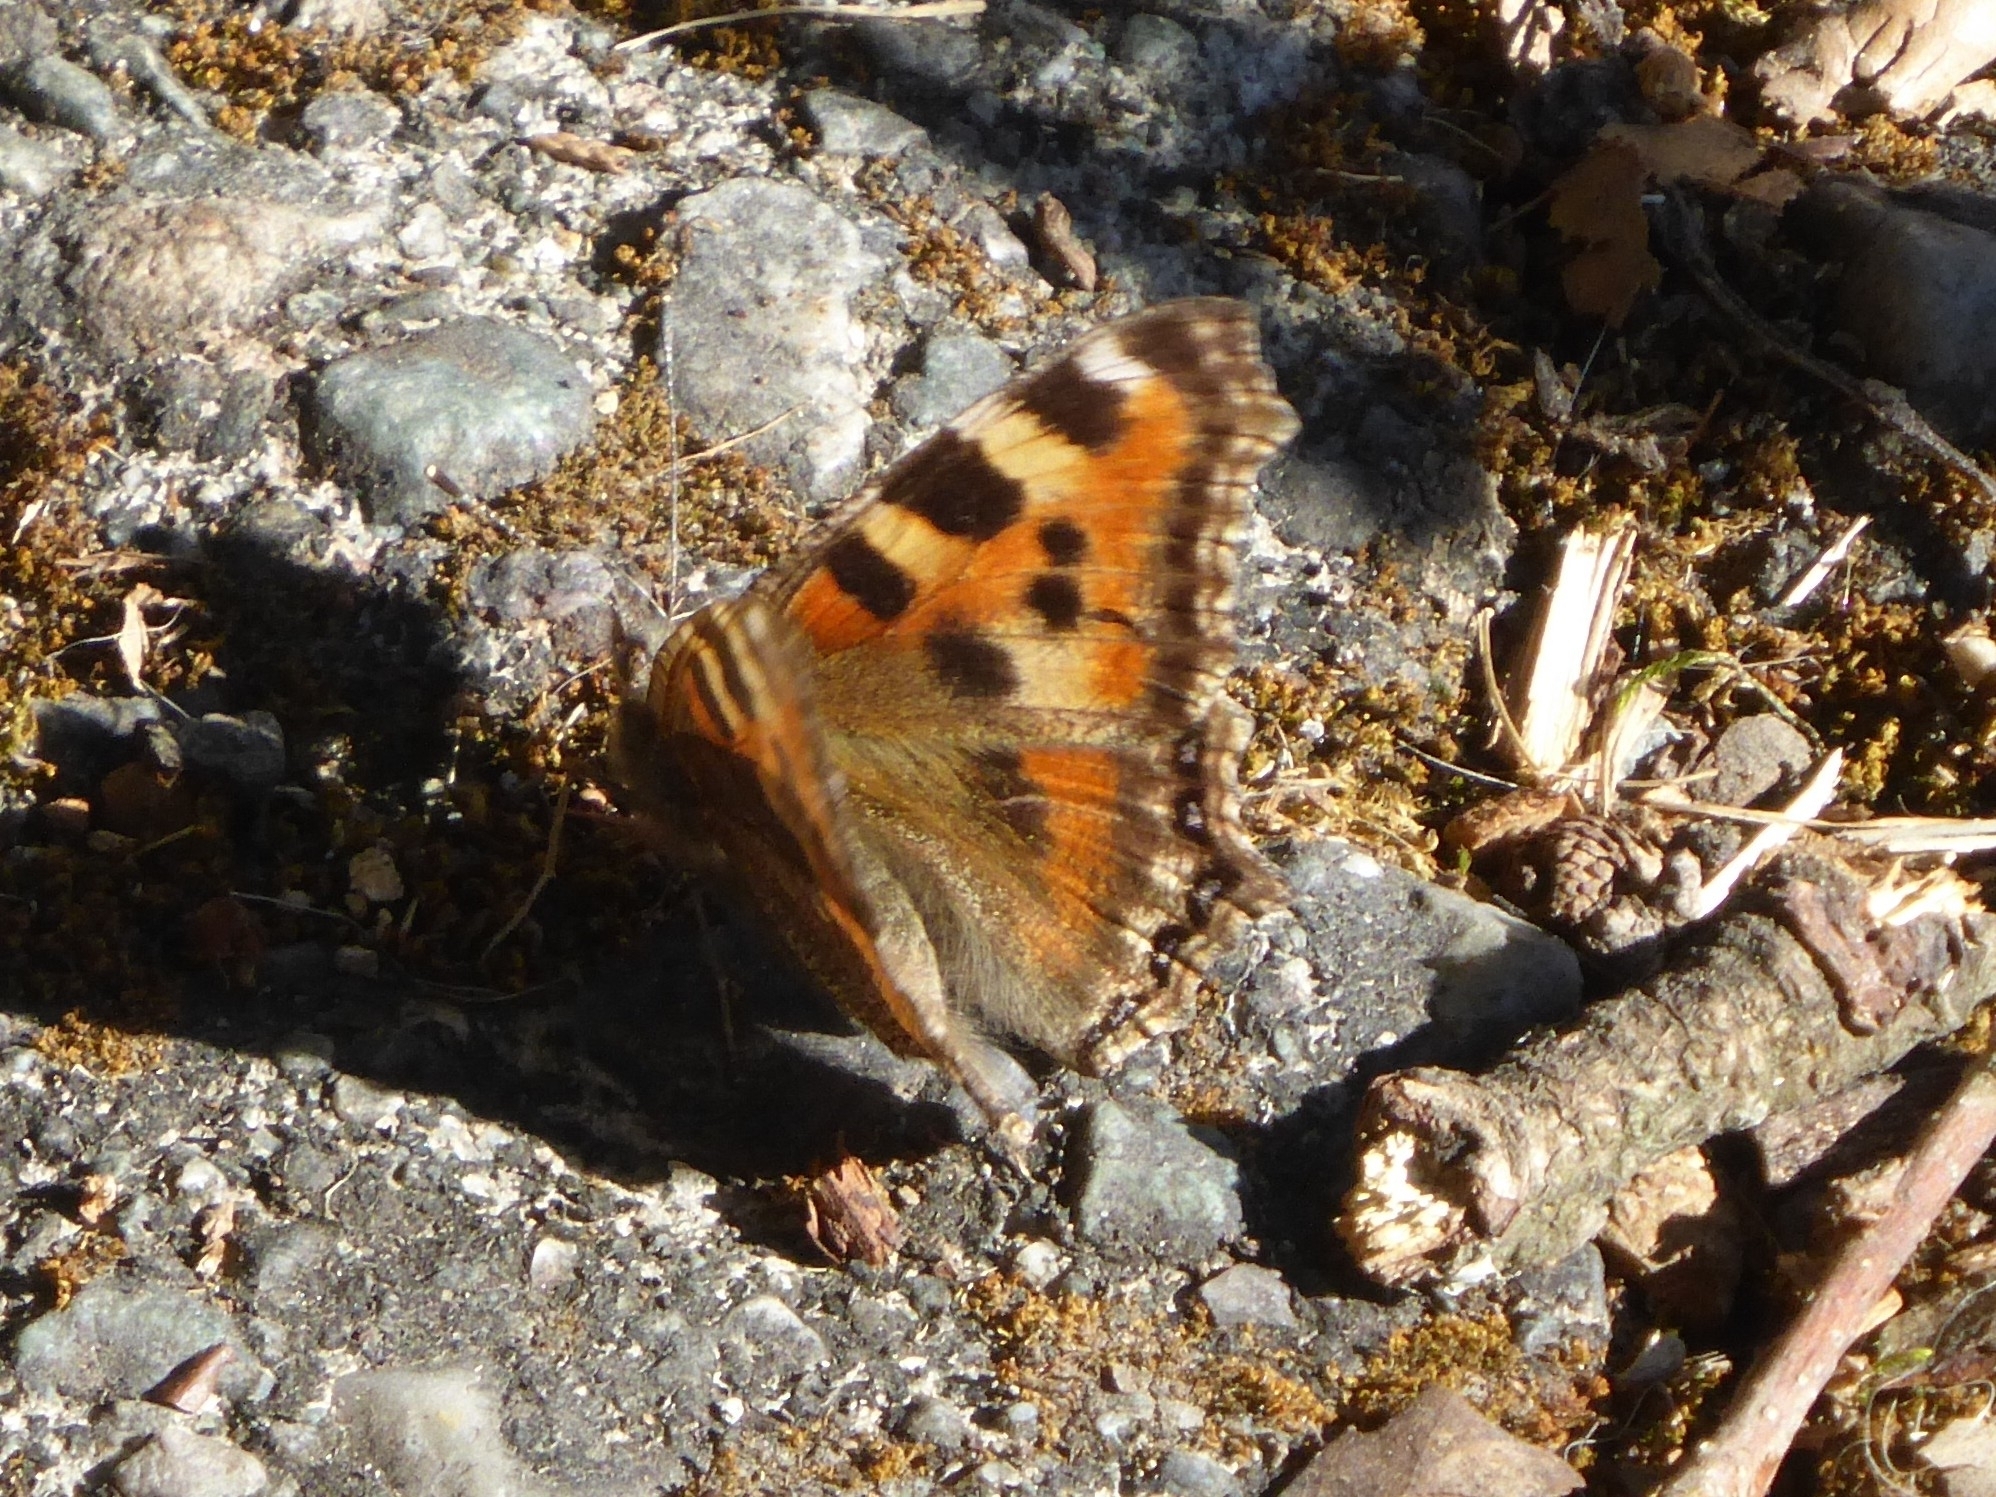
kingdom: Animalia
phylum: Arthropoda
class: Insecta
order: Lepidoptera
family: Nymphalidae
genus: Aglais
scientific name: Aglais caschmirensis
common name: Indian tortoiseshell
